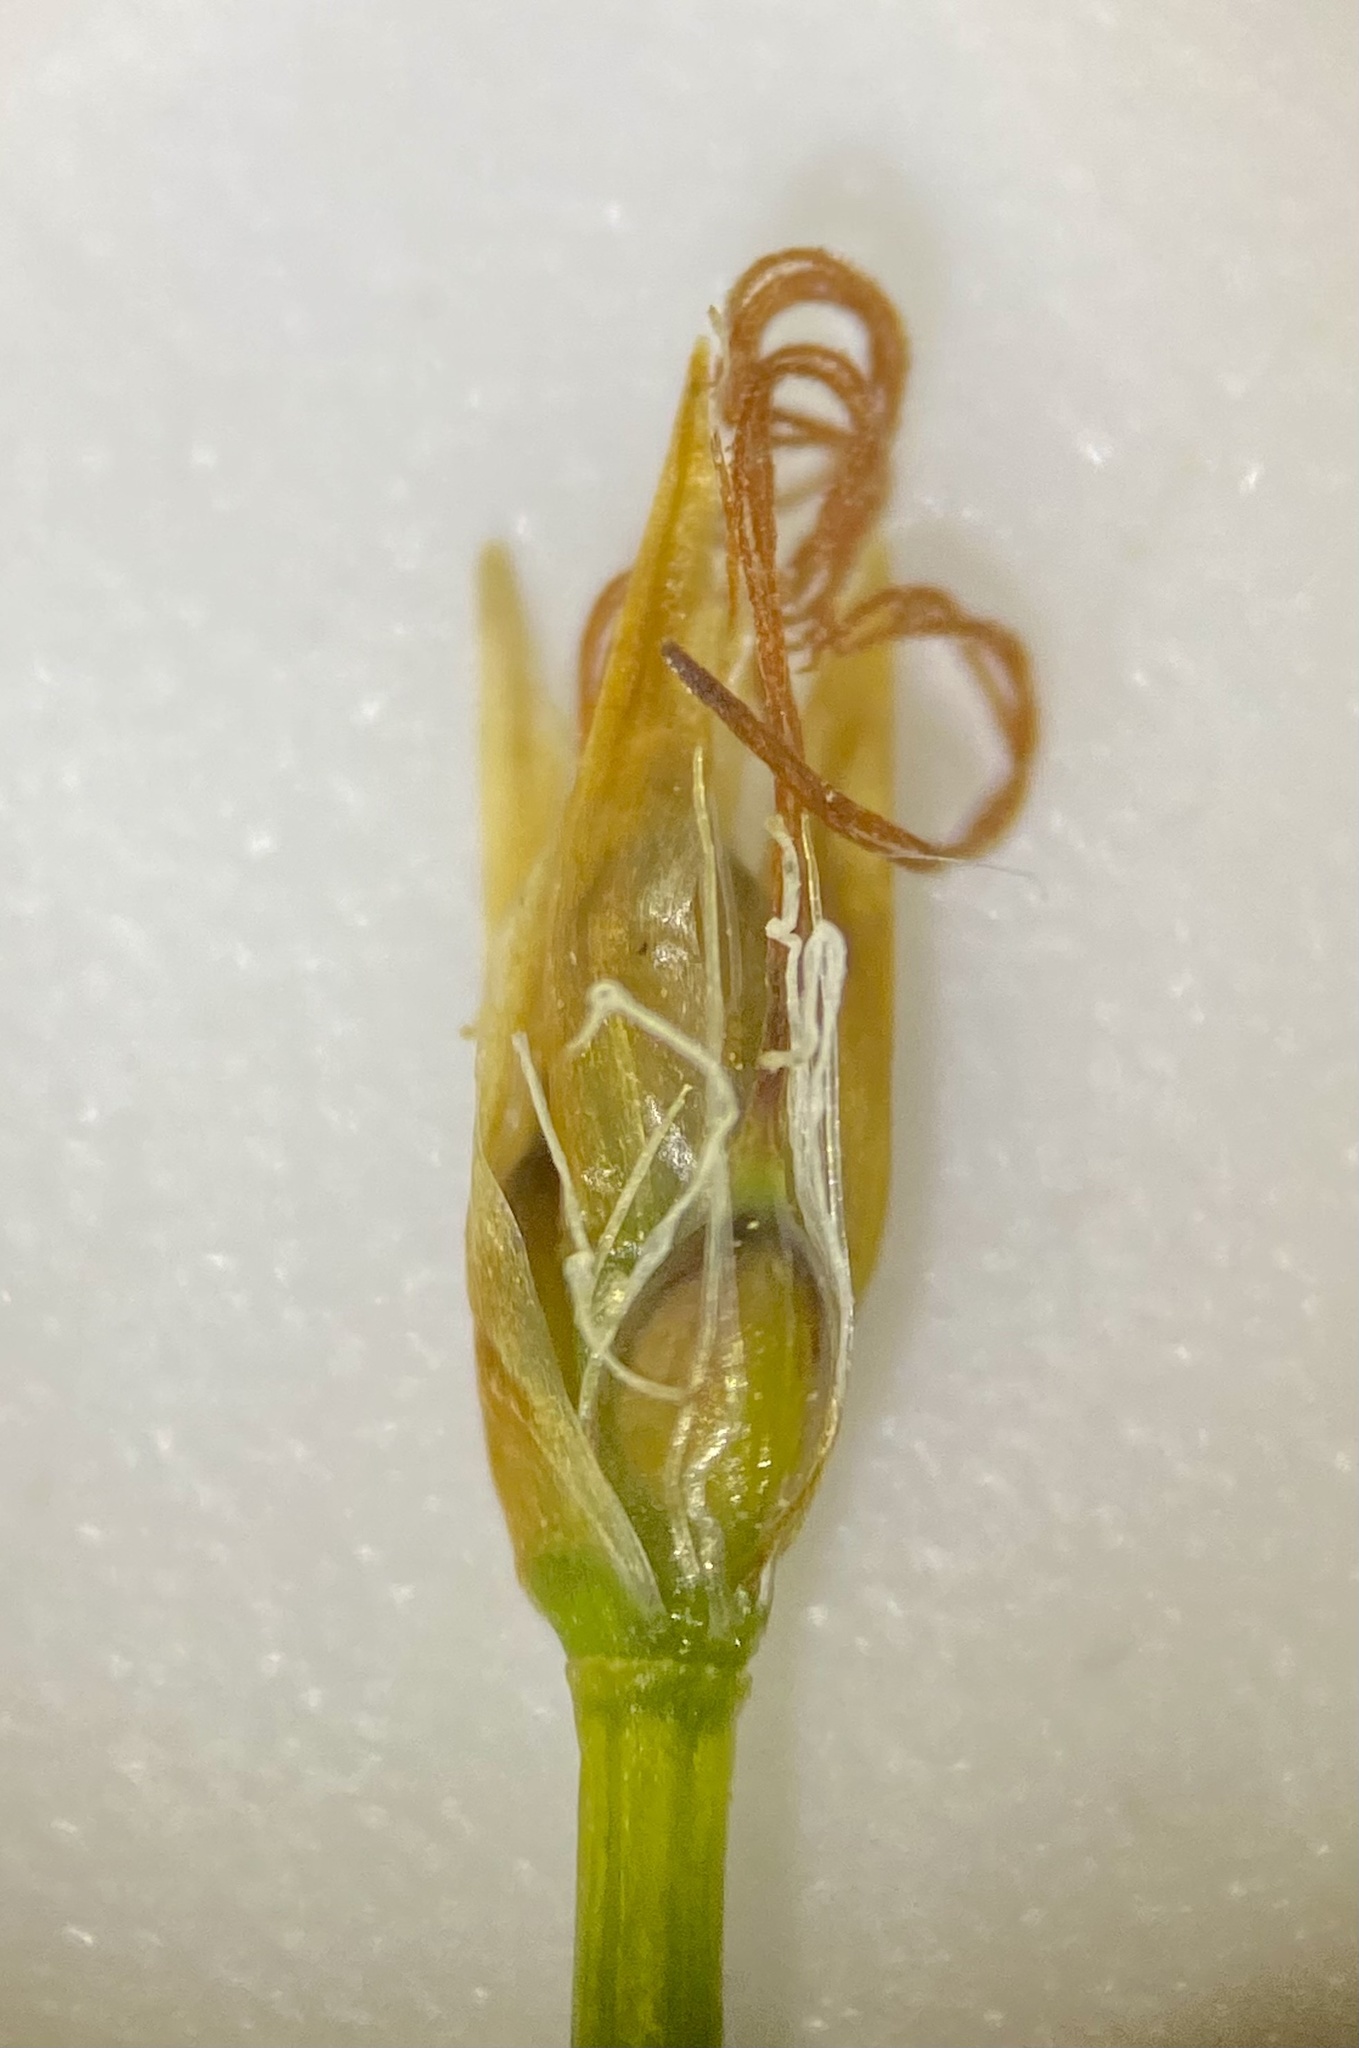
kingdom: Plantae
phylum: Tracheophyta
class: Liliopsida
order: Poales
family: Cyperaceae
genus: Trichophorum
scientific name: Trichophorum cespitosum
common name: Cespitose bulrush
